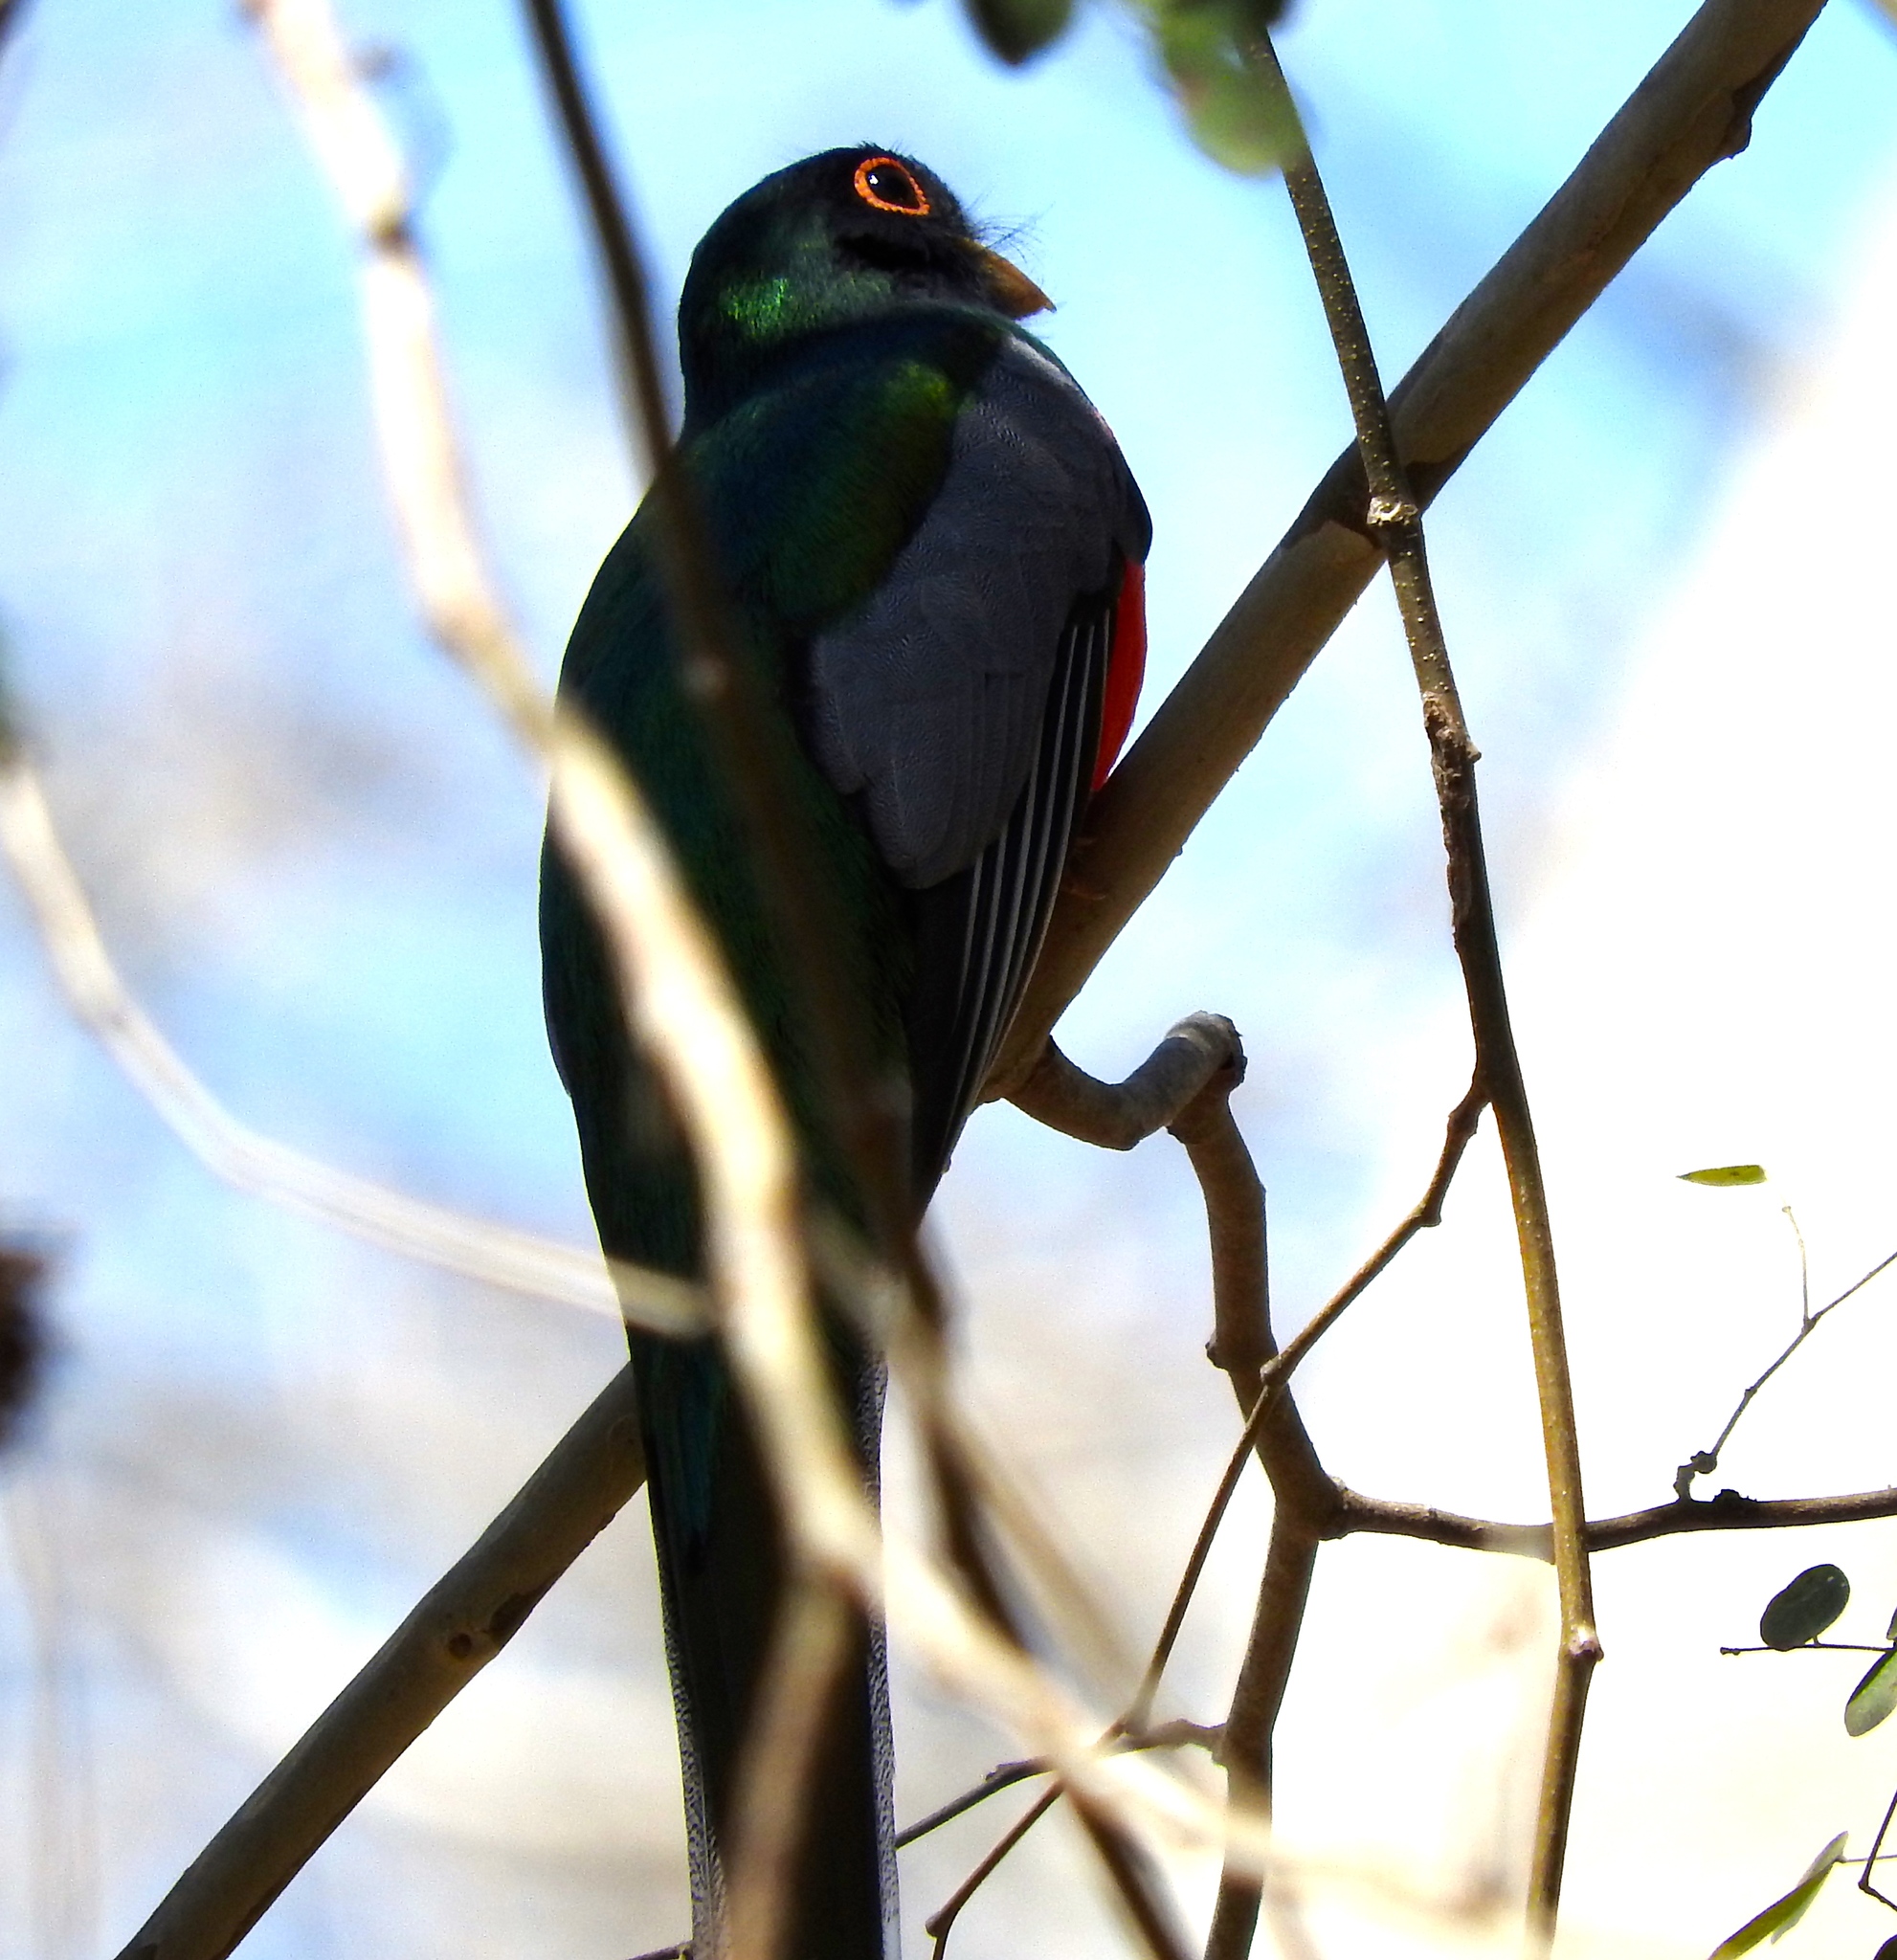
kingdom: Animalia
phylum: Chordata
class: Aves
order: Trogoniformes
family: Trogonidae
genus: Trogon
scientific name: Trogon elegans
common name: Elegant trogon
